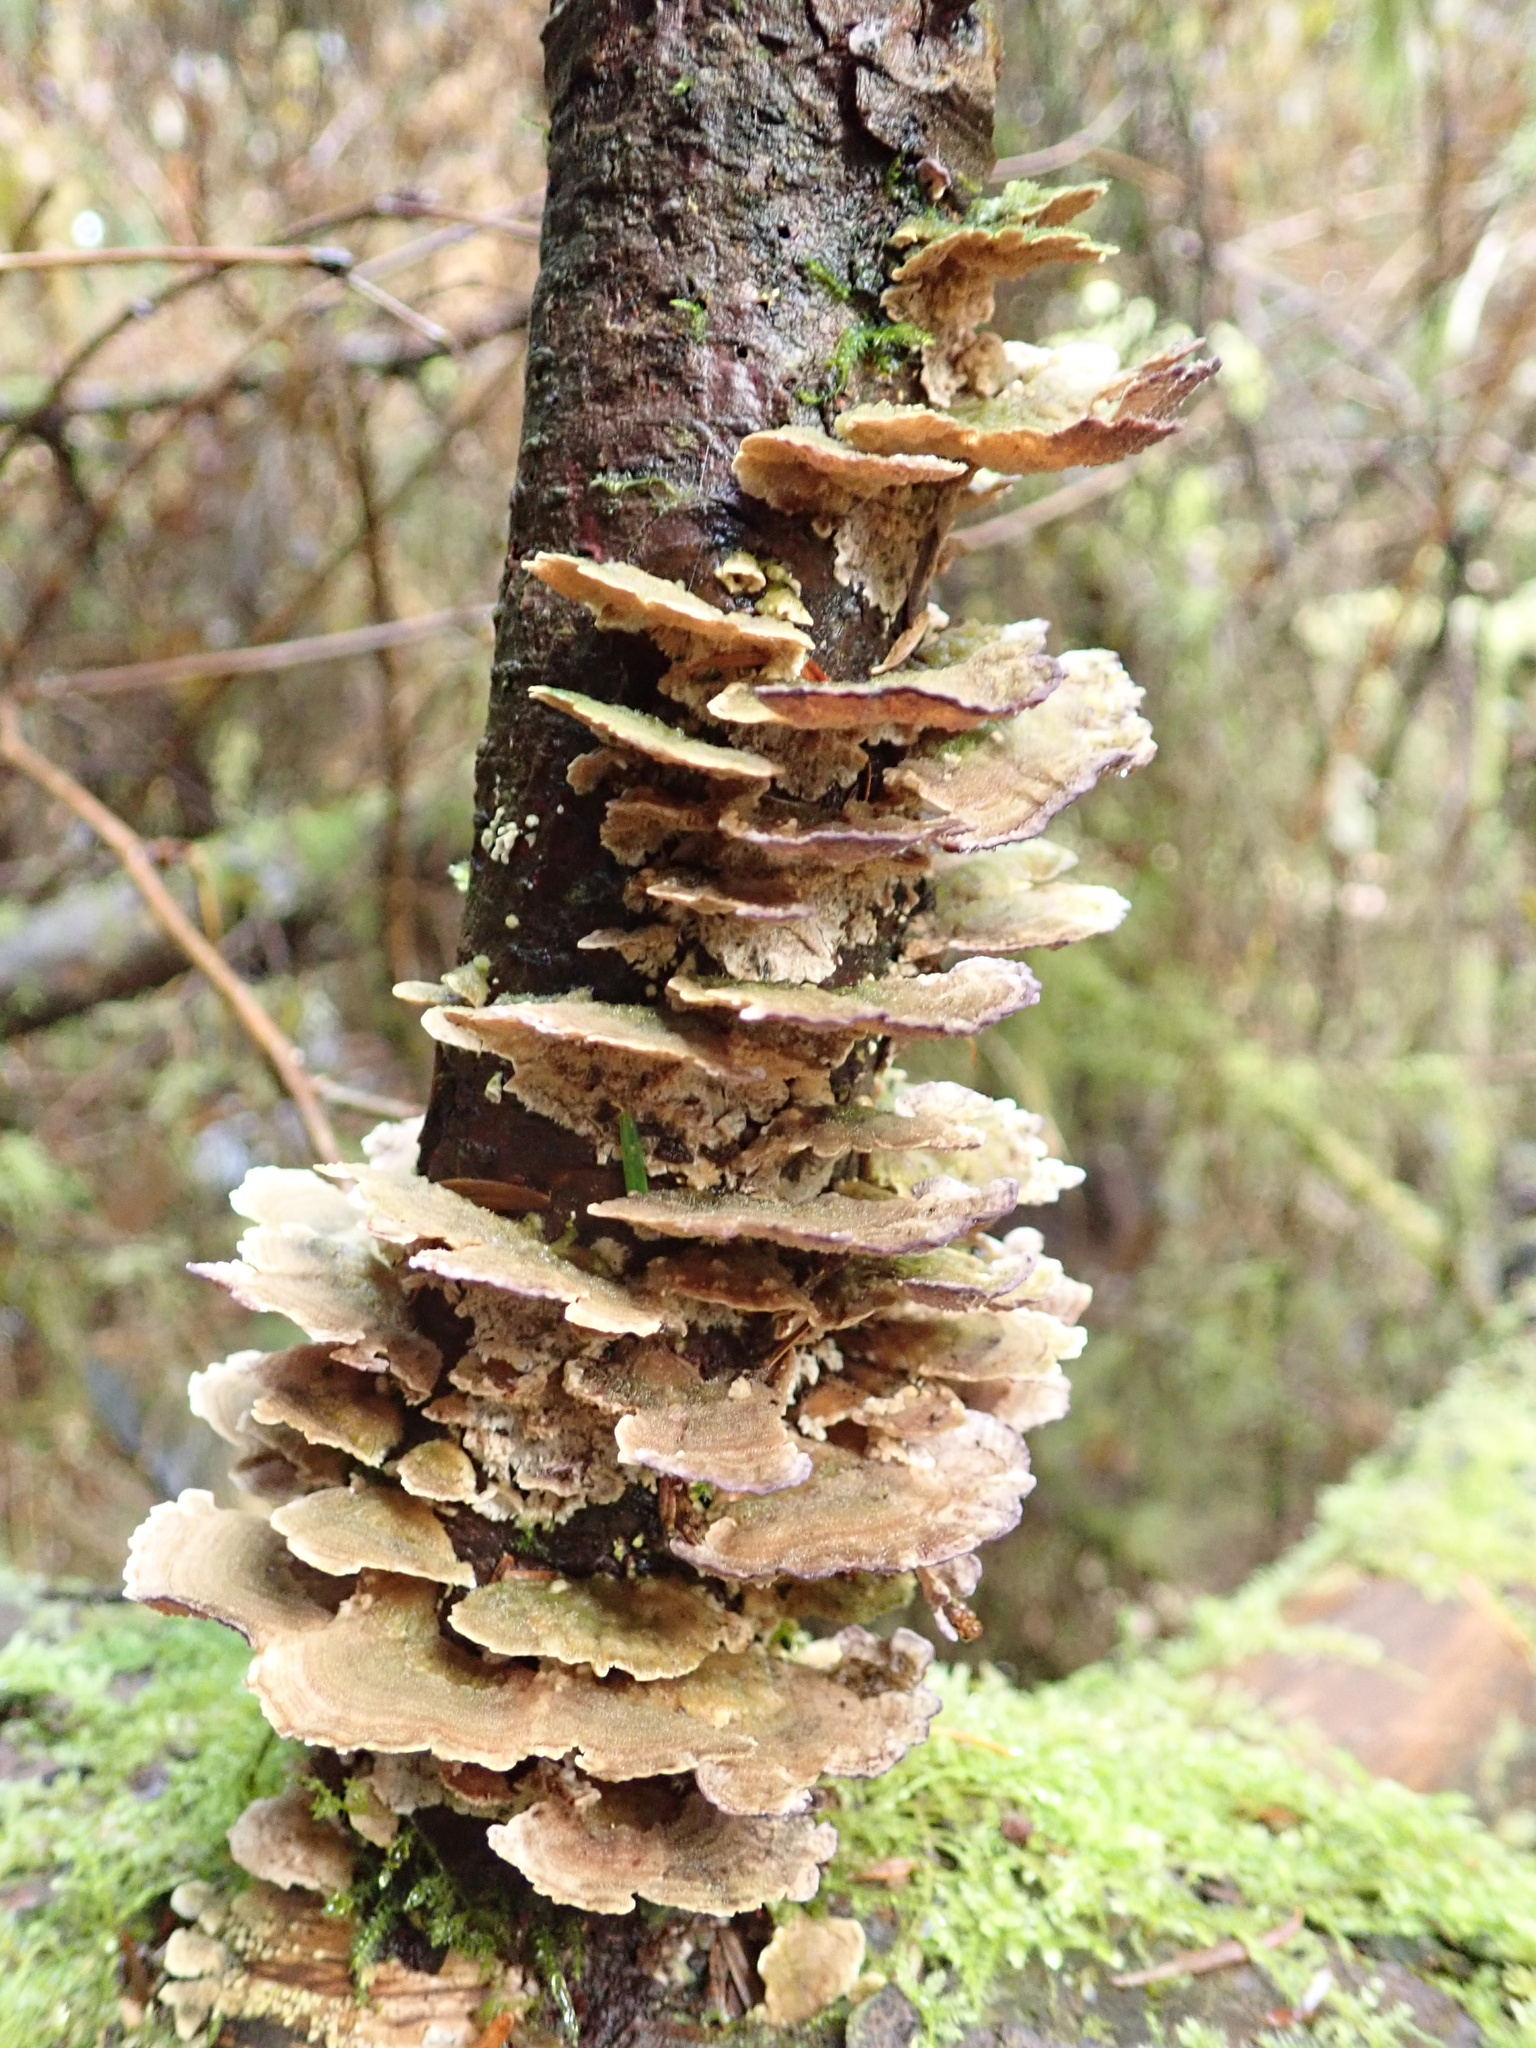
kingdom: Fungi
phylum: Basidiomycota
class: Agaricomycetes
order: Polyporales
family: Polyporaceae
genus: Trametes
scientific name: Trametes versicolor
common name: Turkeytail
